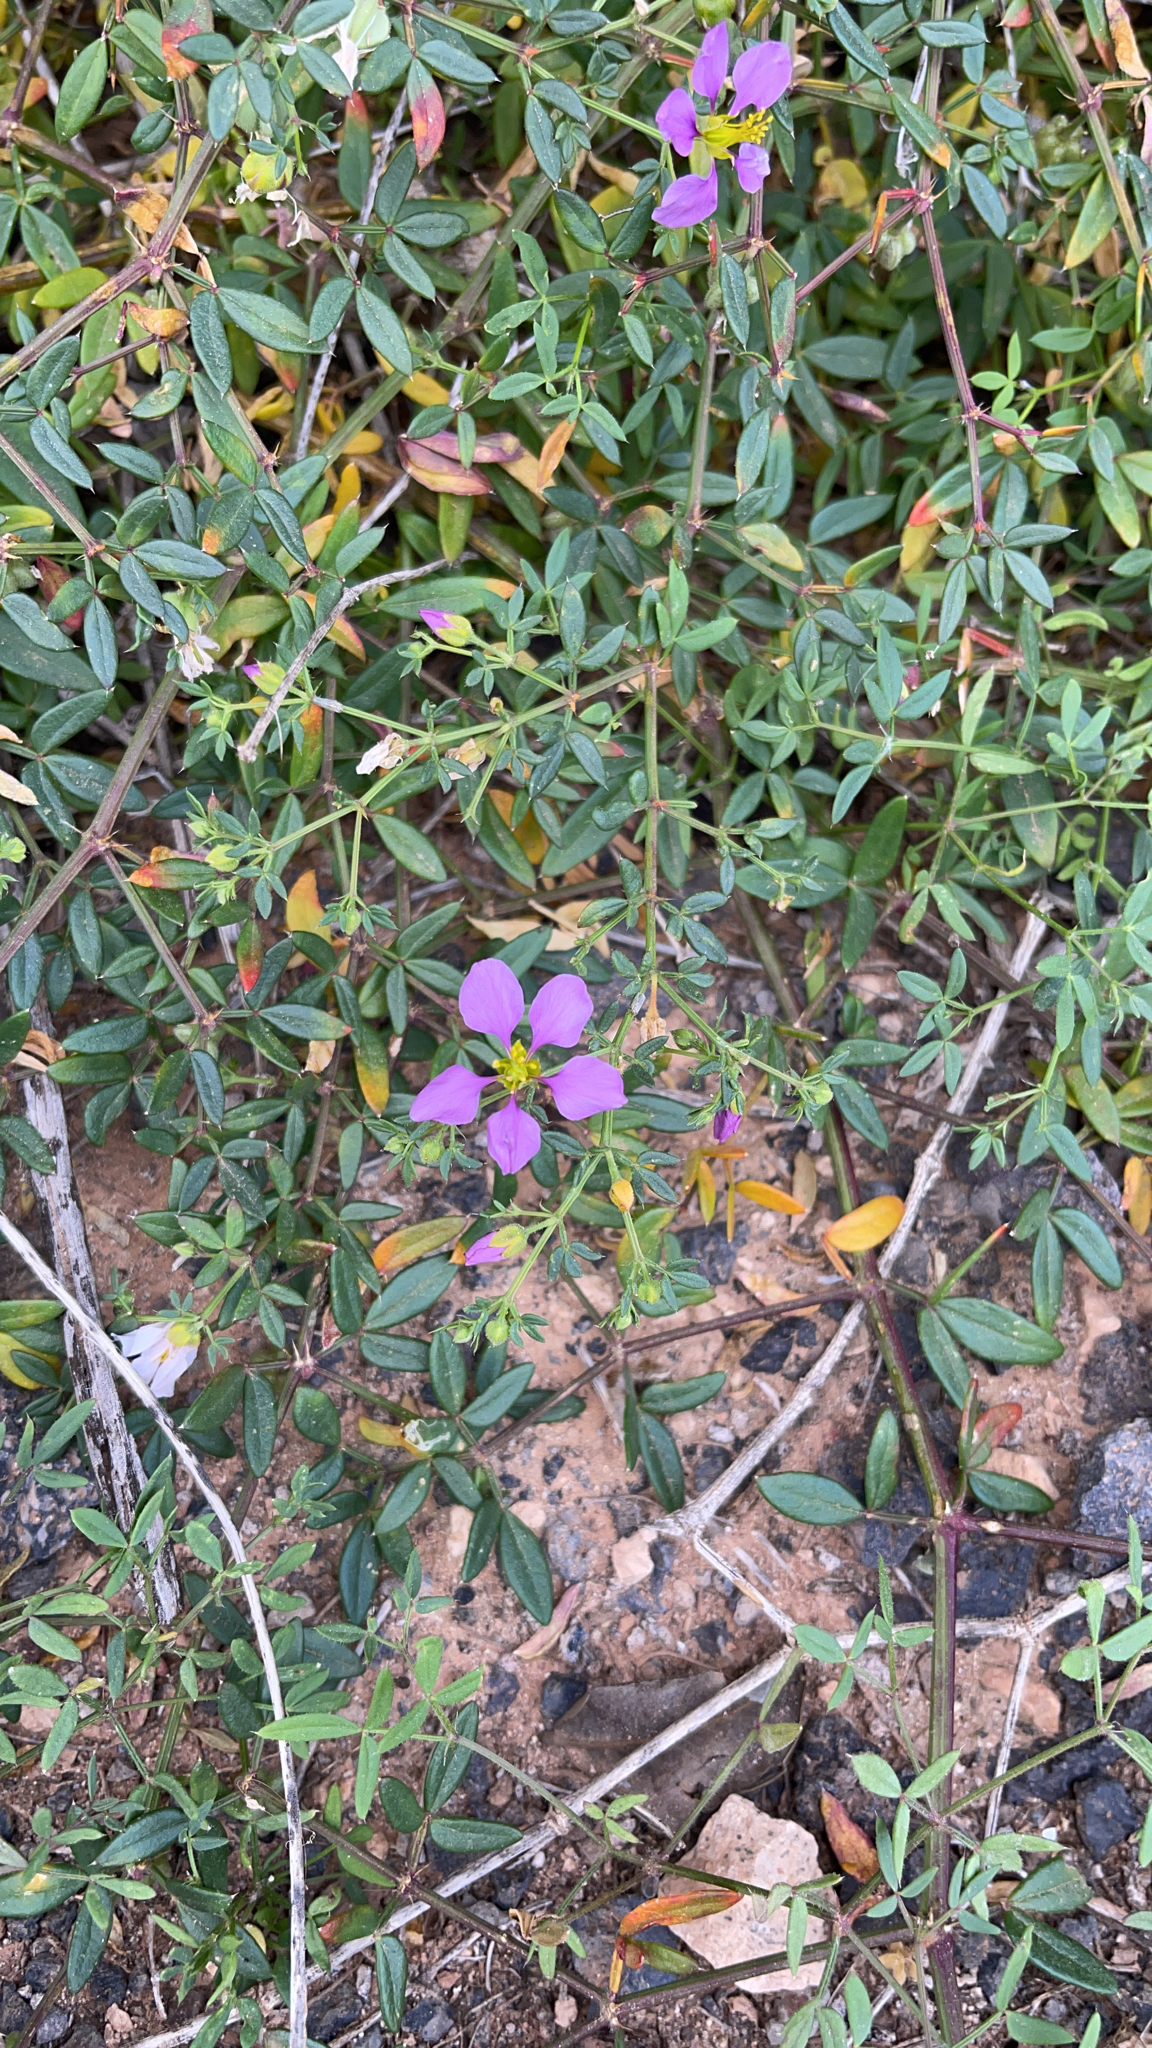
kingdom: Plantae
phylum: Tracheophyta
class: Magnoliopsida
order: Zygophyllales
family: Zygophyllaceae
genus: Fagonia
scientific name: Fagonia cretica
